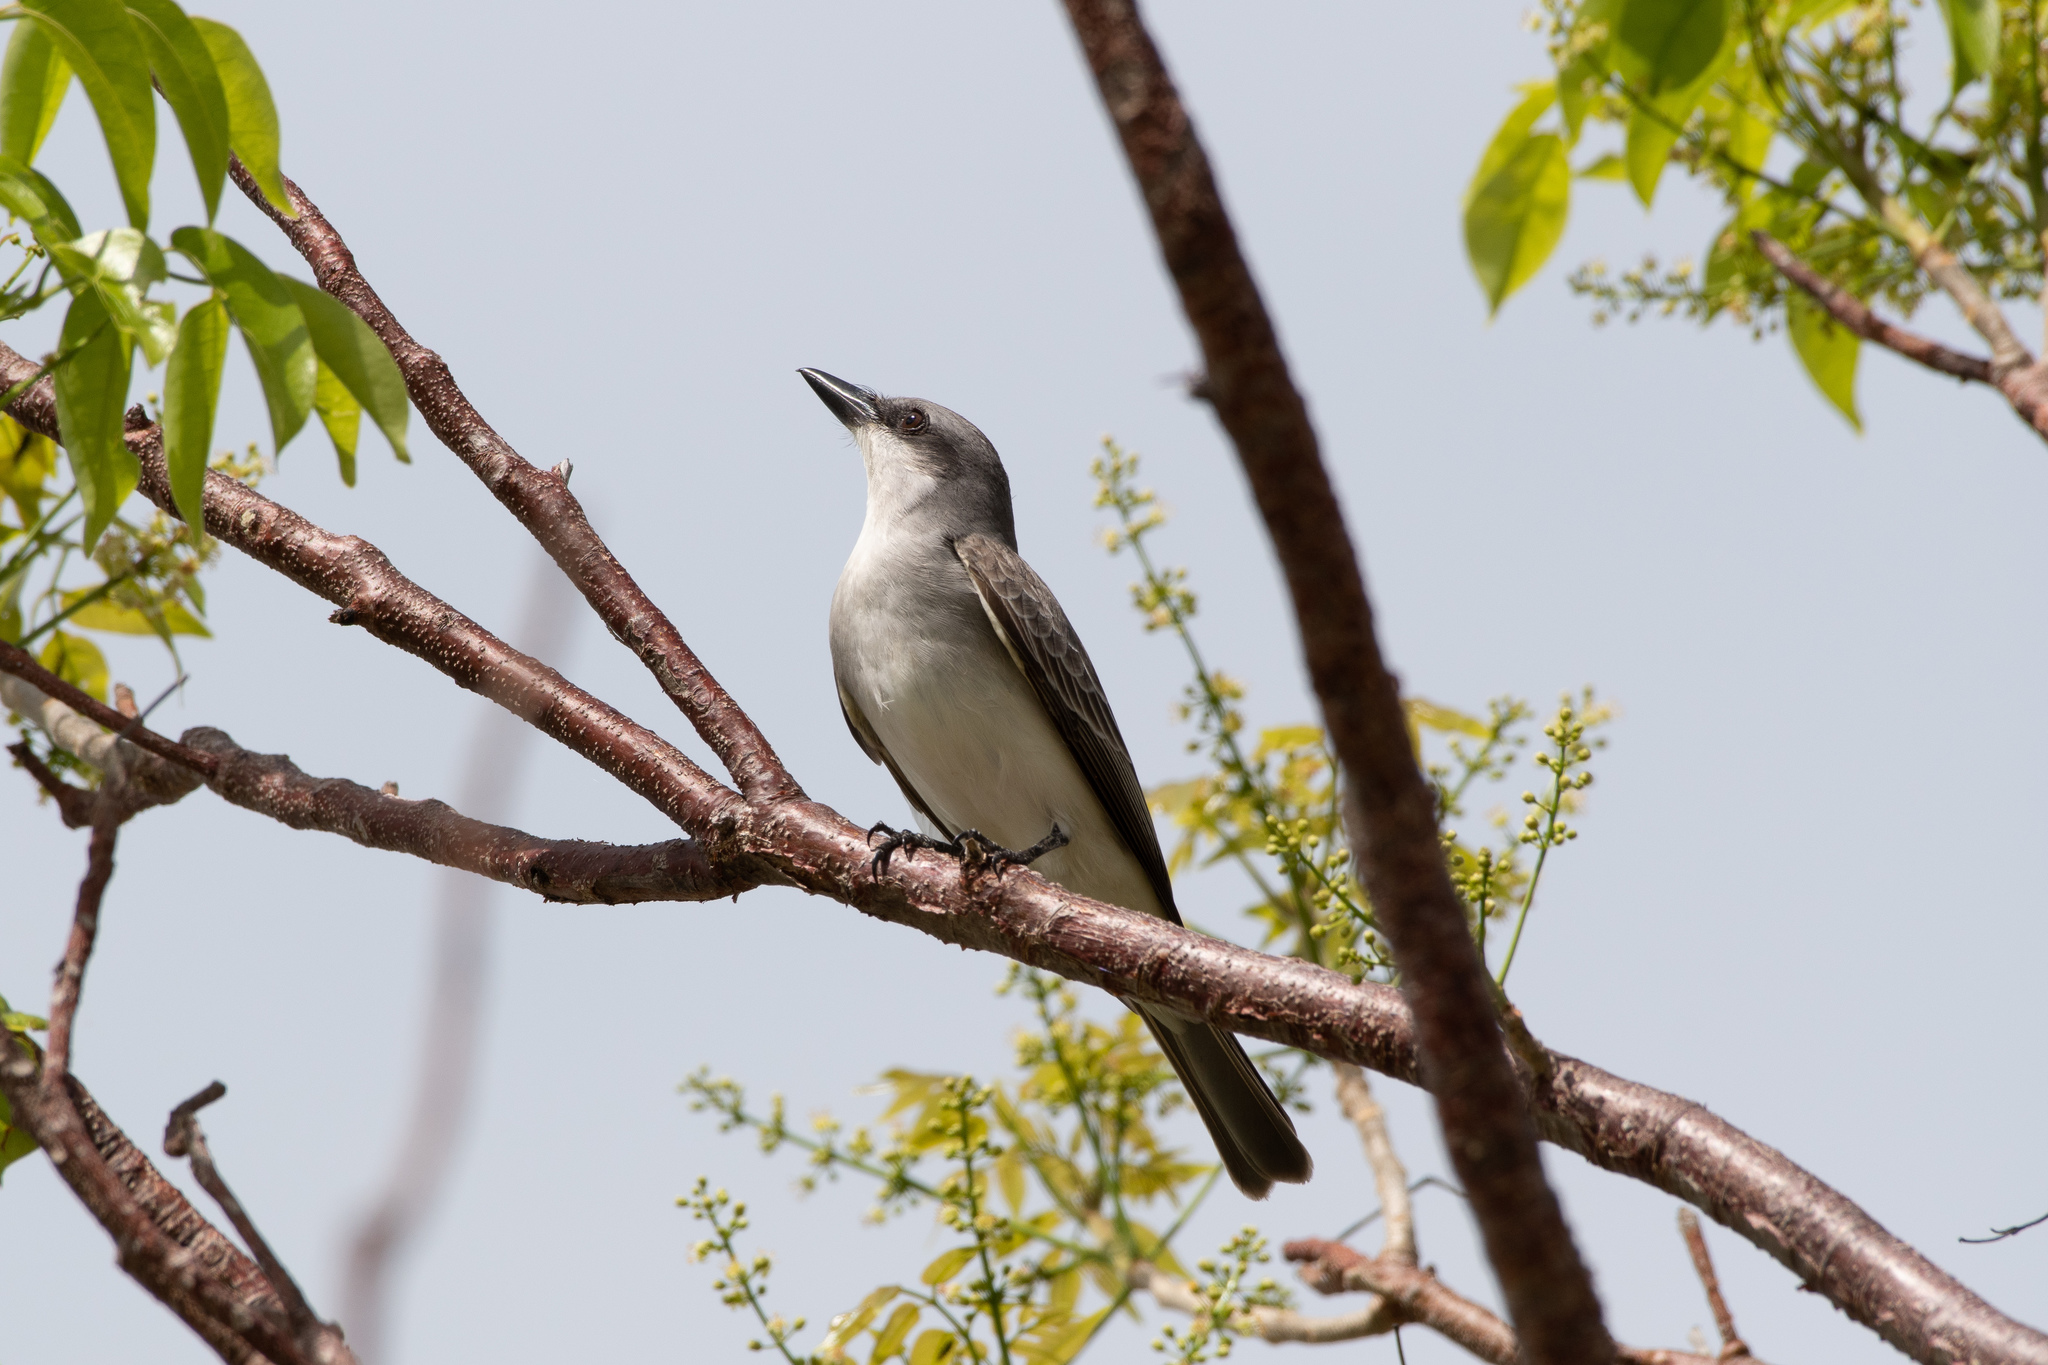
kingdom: Animalia
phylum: Chordata
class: Aves
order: Passeriformes
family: Tyrannidae
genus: Tyrannus
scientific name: Tyrannus dominicensis
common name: Gray kingbird
